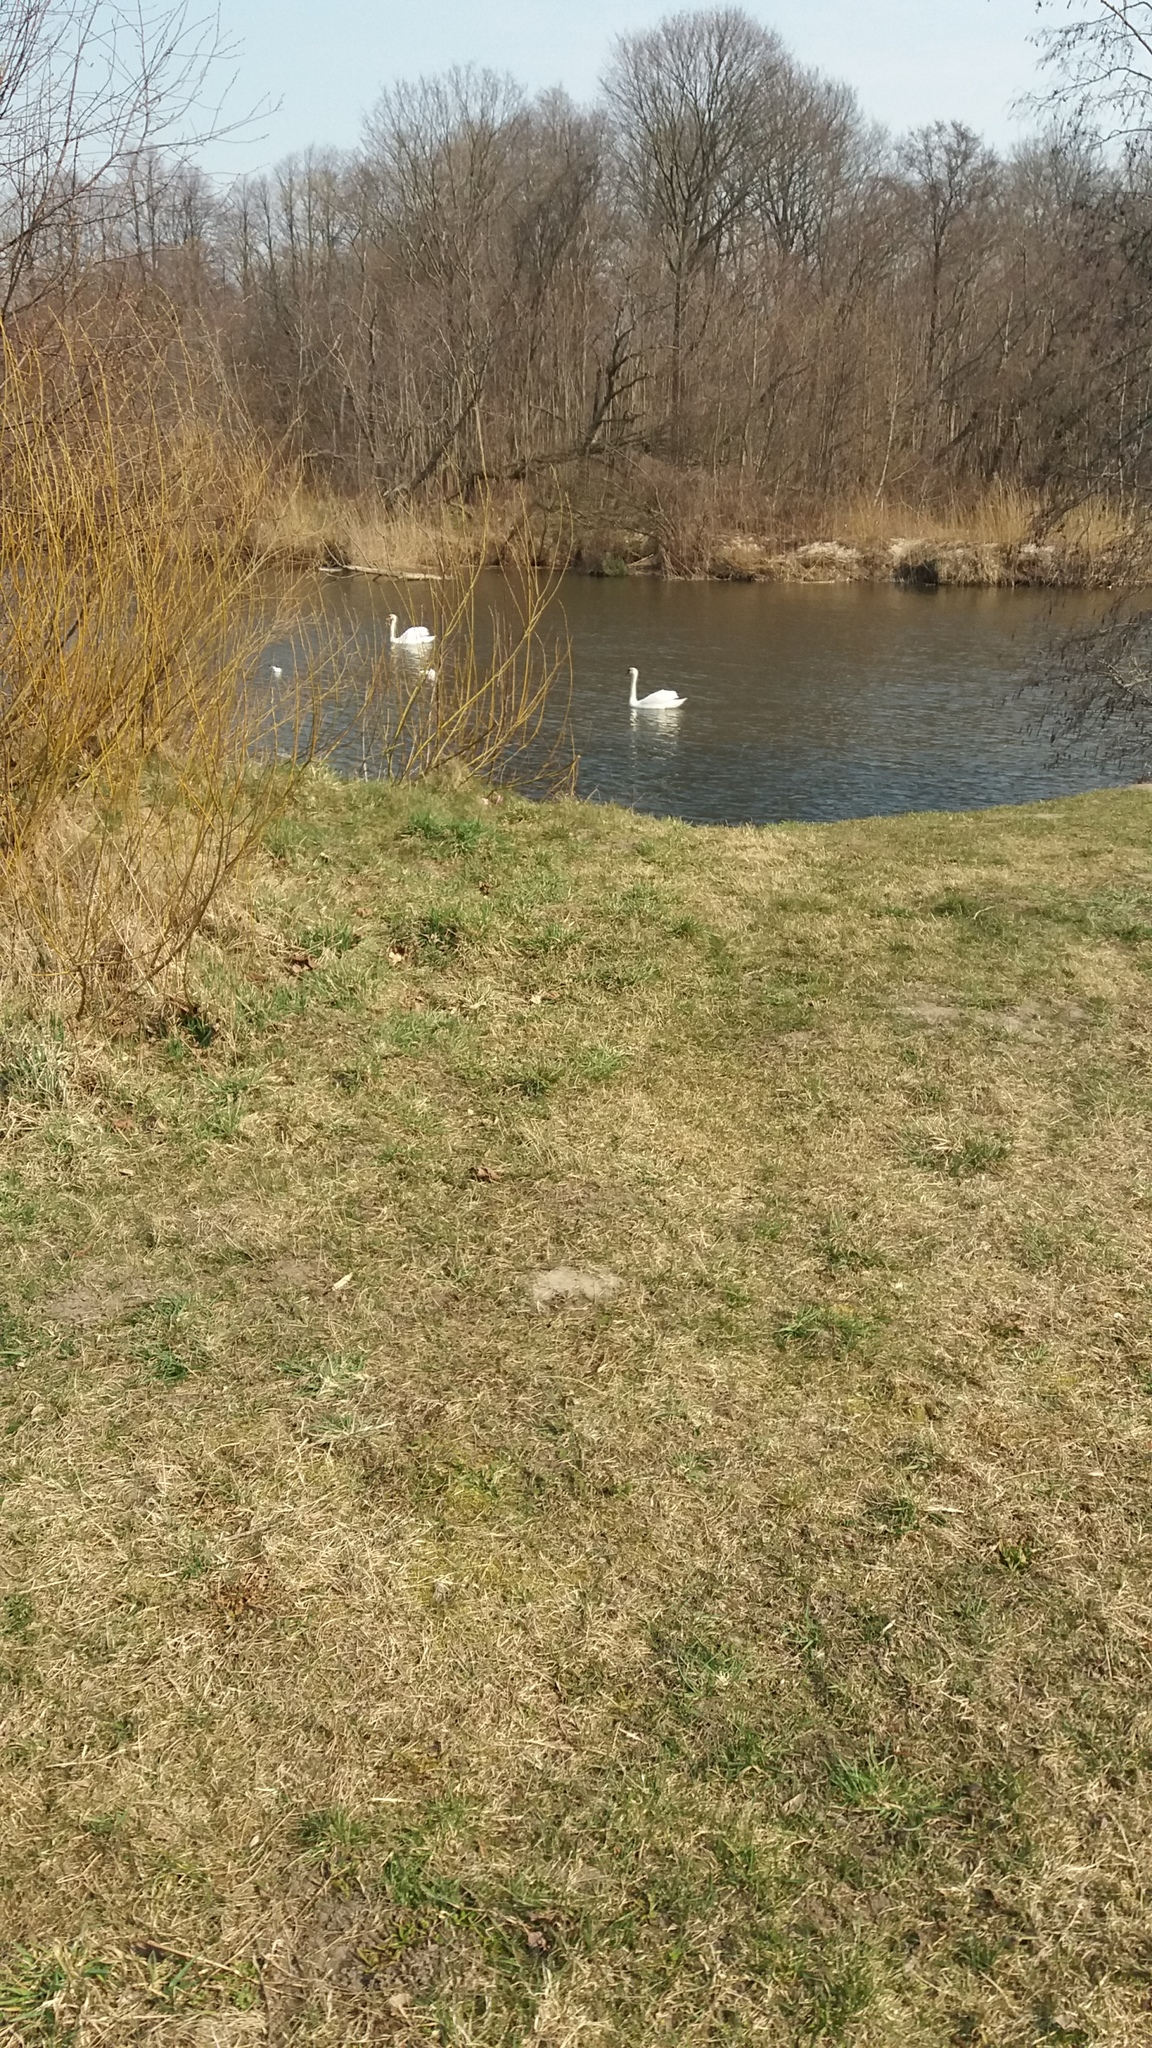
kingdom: Animalia
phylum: Chordata
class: Aves
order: Anseriformes
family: Anatidae
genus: Cygnus
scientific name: Cygnus olor
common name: Mute swan
